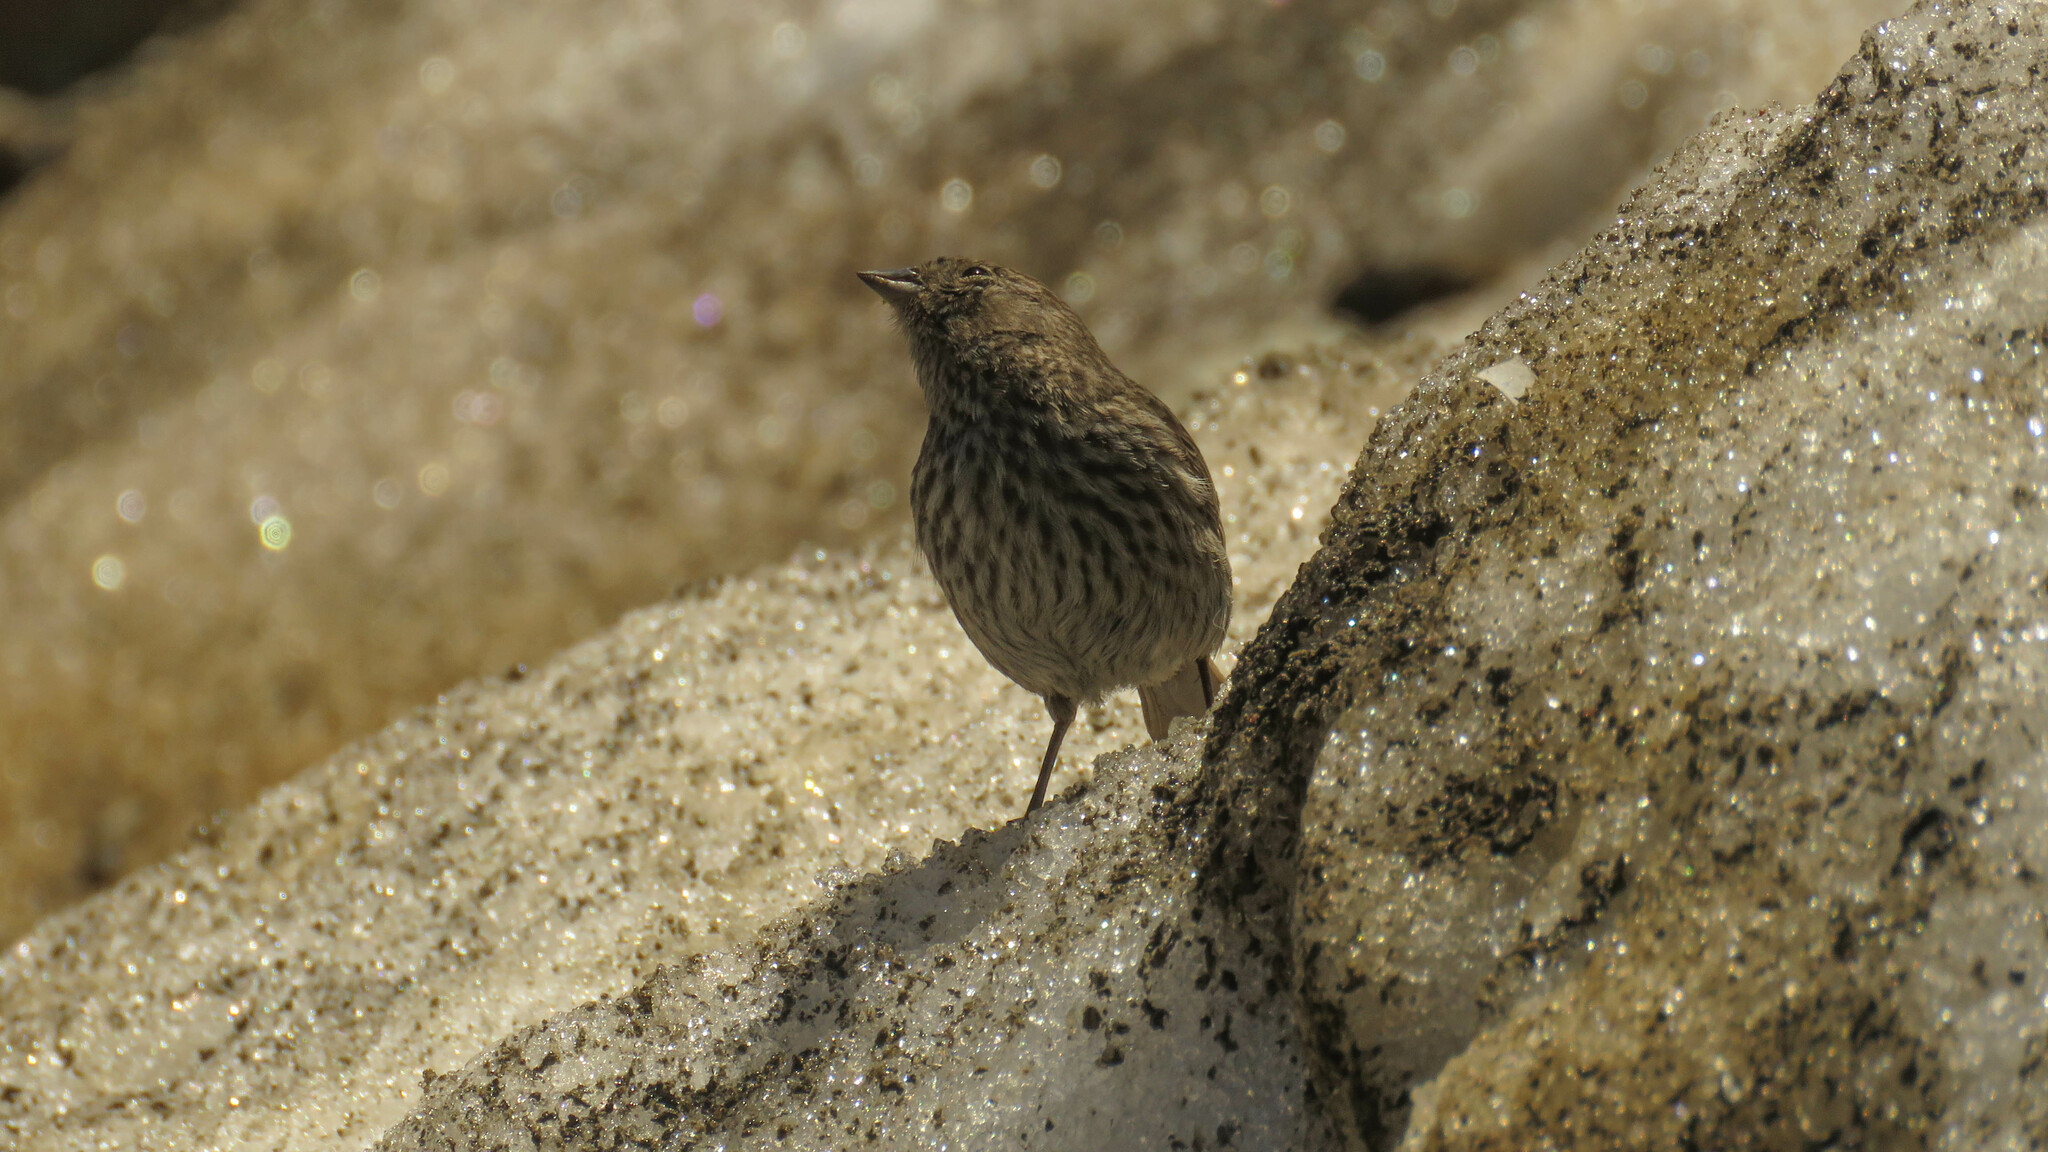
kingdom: Animalia
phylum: Chordata
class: Aves
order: Passeriformes
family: Thraupidae
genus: Geospizopsis
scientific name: Geospizopsis unicolor
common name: Plumbeous sierra-finch
